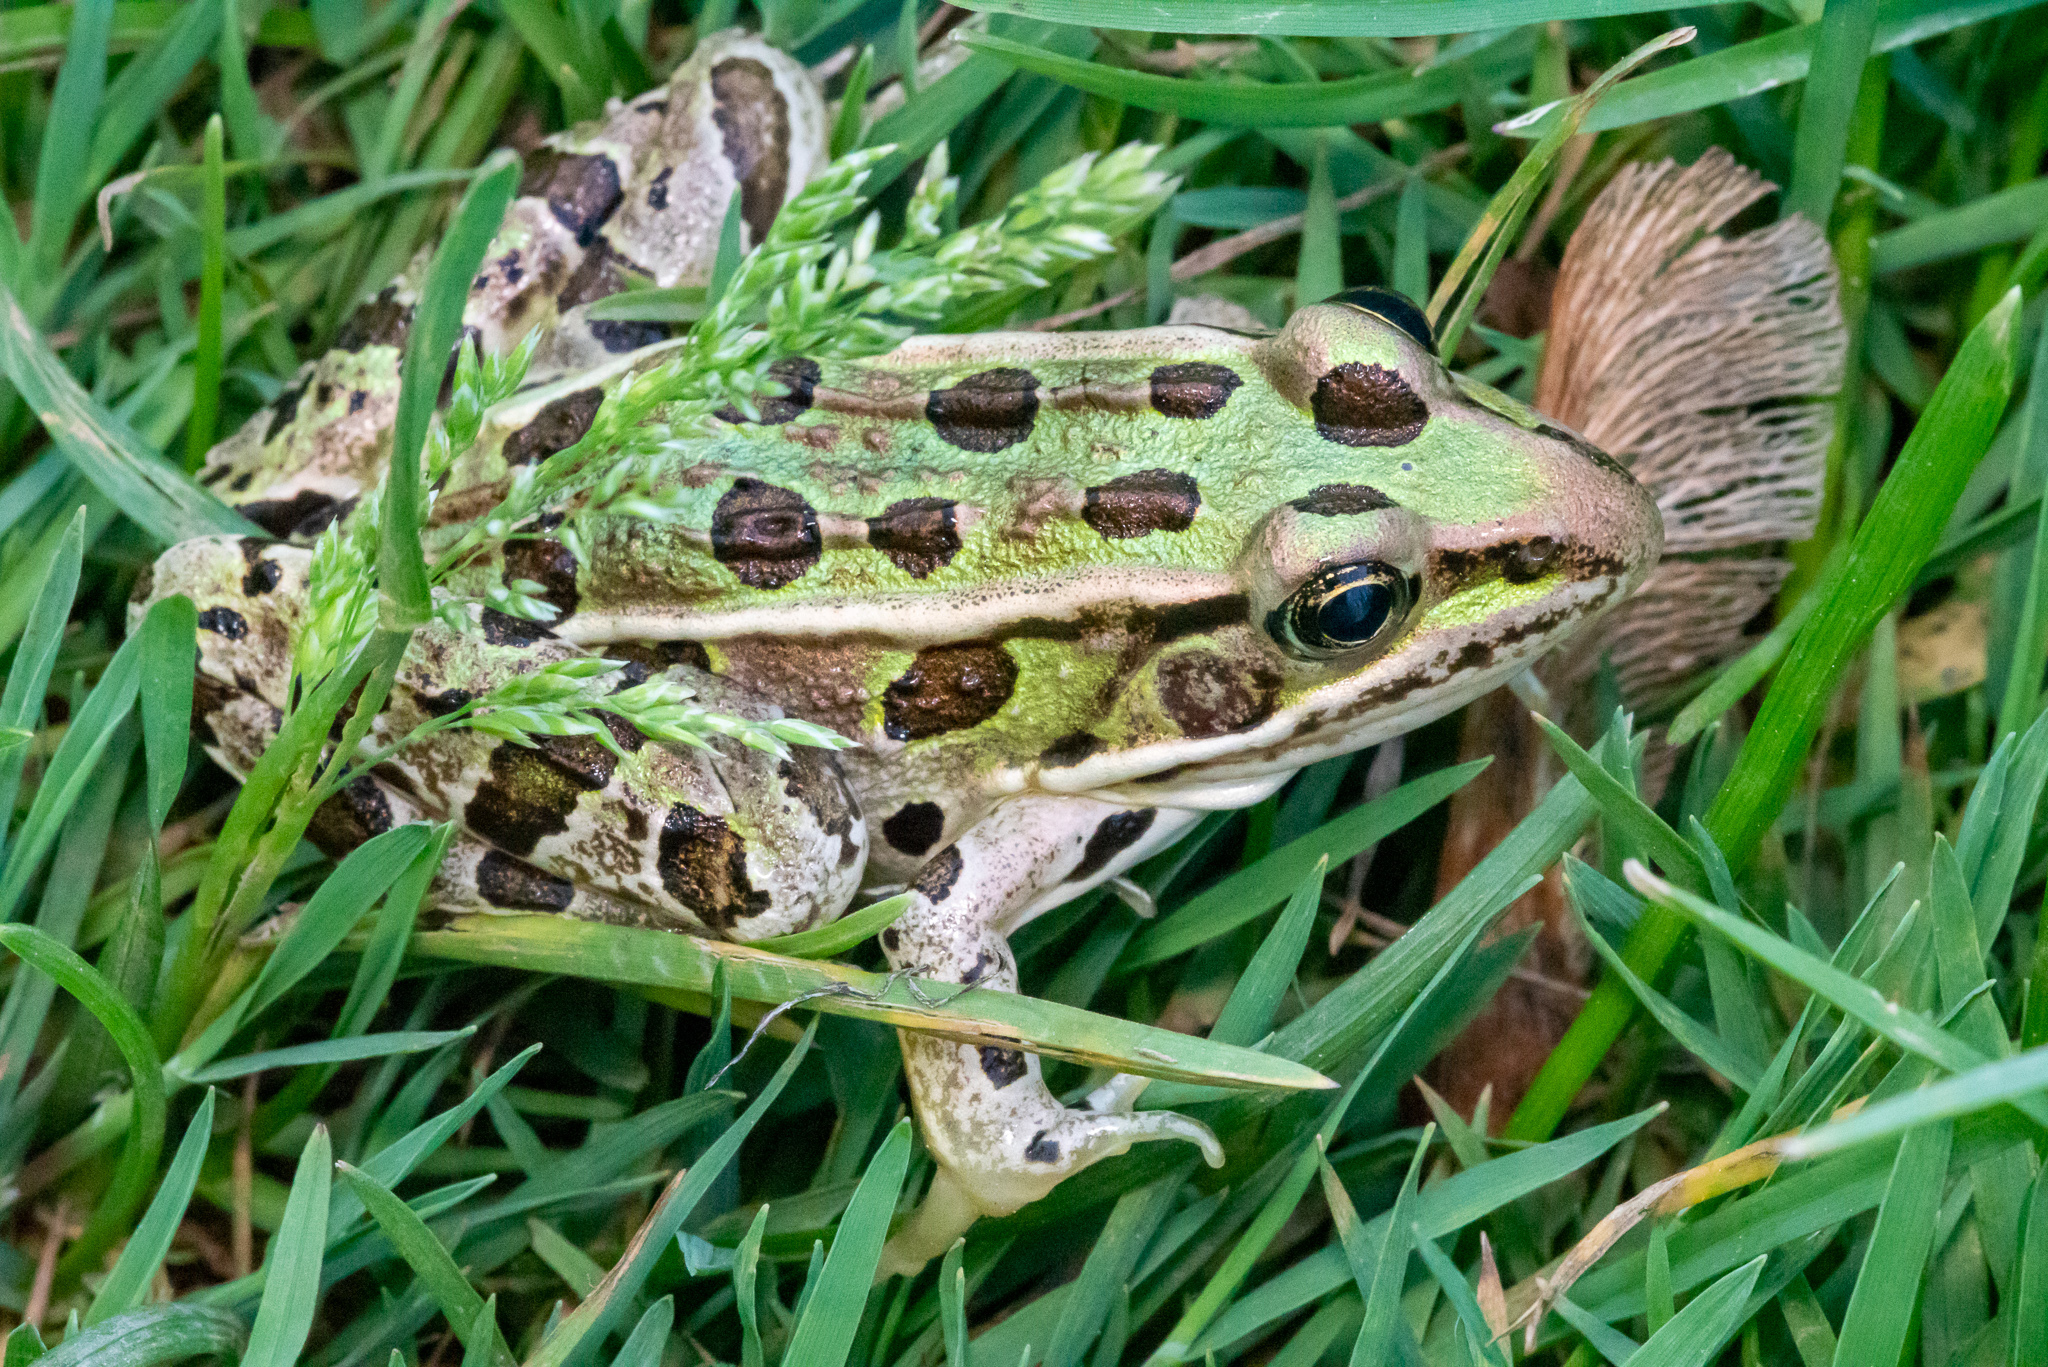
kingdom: Animalia
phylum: Chordata
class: Amphibia
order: Anura
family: Ranidae
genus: Lithobates
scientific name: Lithobates pipiens
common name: Northern leopard frog
